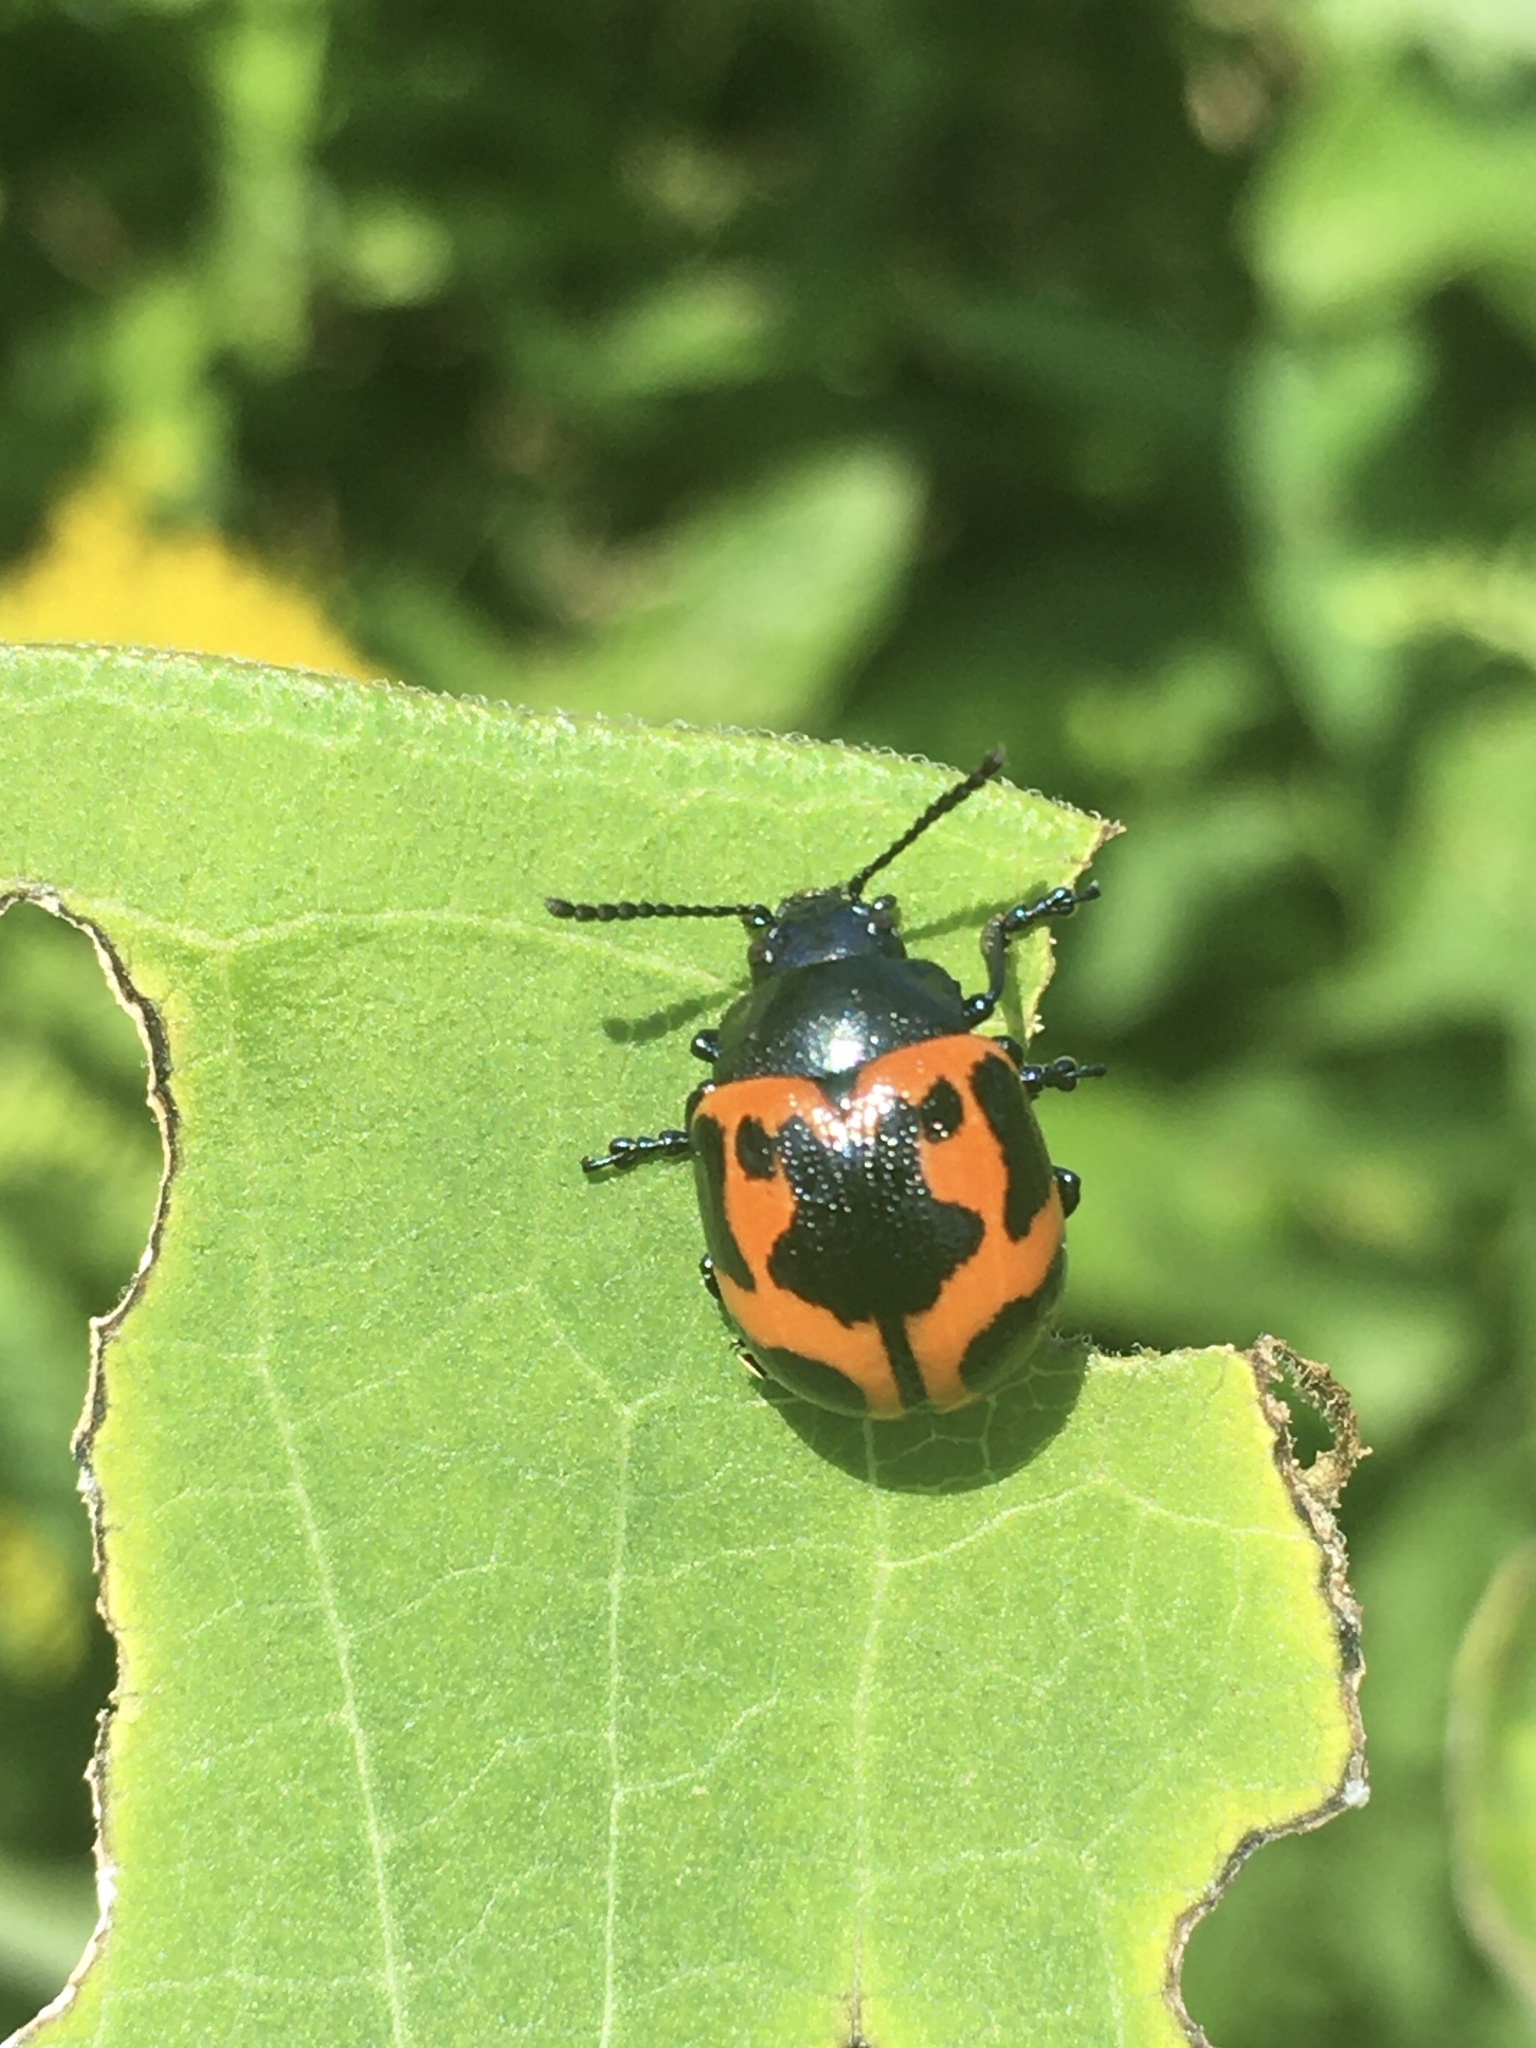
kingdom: Animalia
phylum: Arthropoda
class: Insecta
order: Coleoptera
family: Chrysomelidae
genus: Labidomera
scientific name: Labidomera clivicollis
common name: Swamp milkweed leaf beetle
